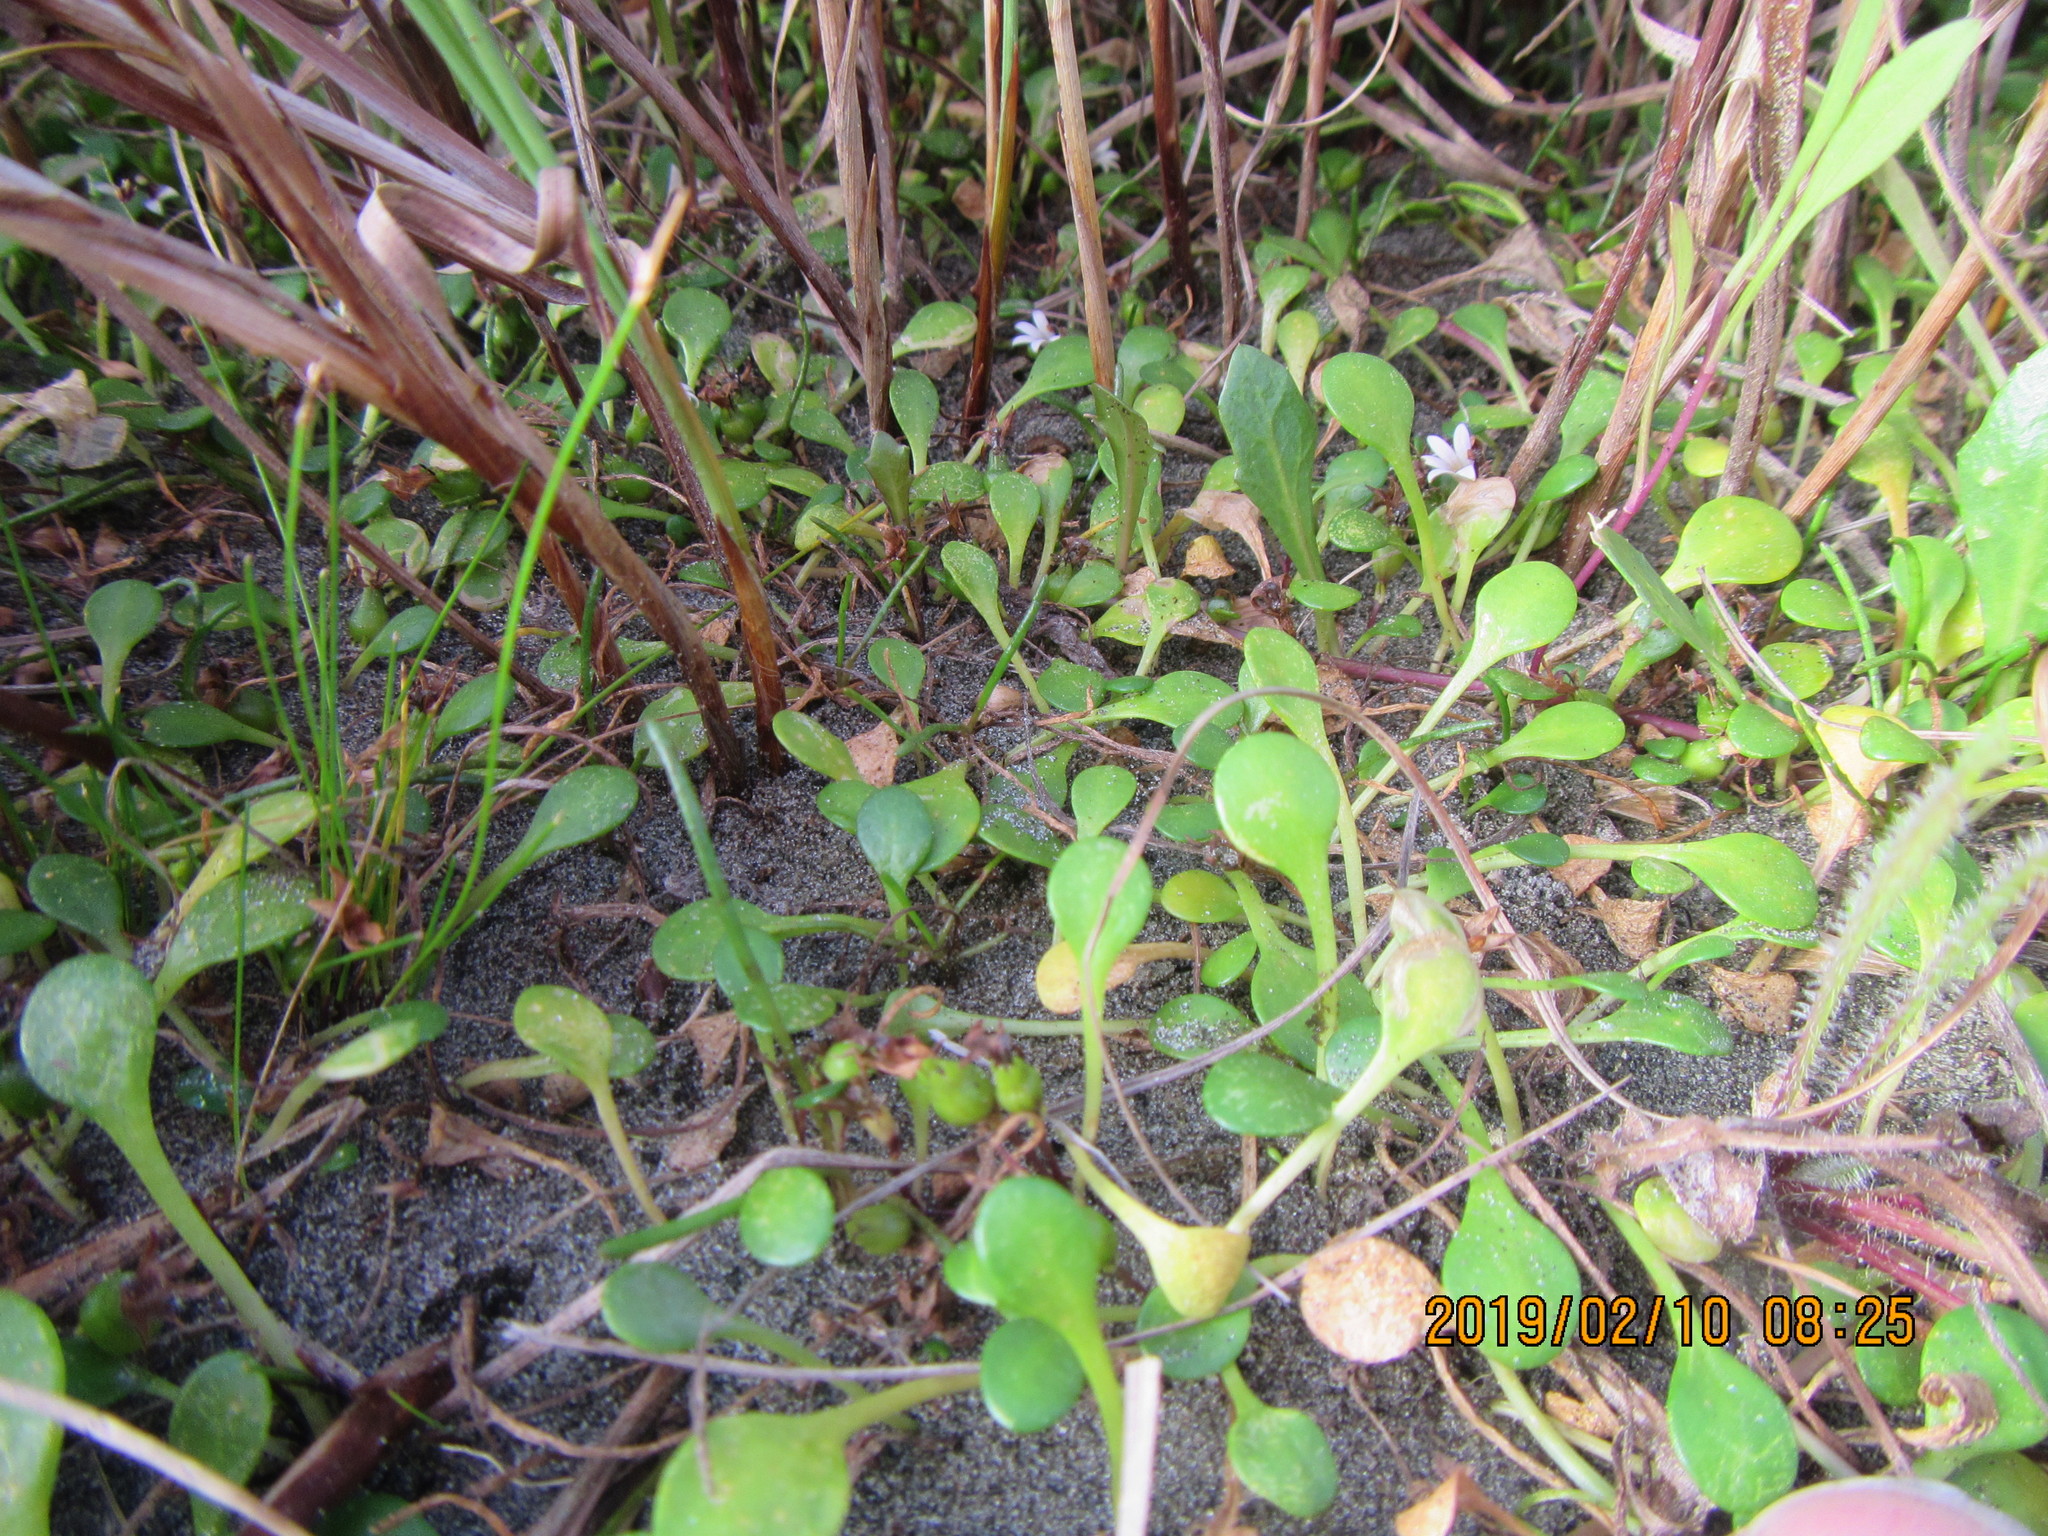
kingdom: Plantae
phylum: Tracheophyta
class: Magnoliopsida
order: Asterales
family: Goodeniaceae
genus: Goodenia
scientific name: Goodenia heenanii
